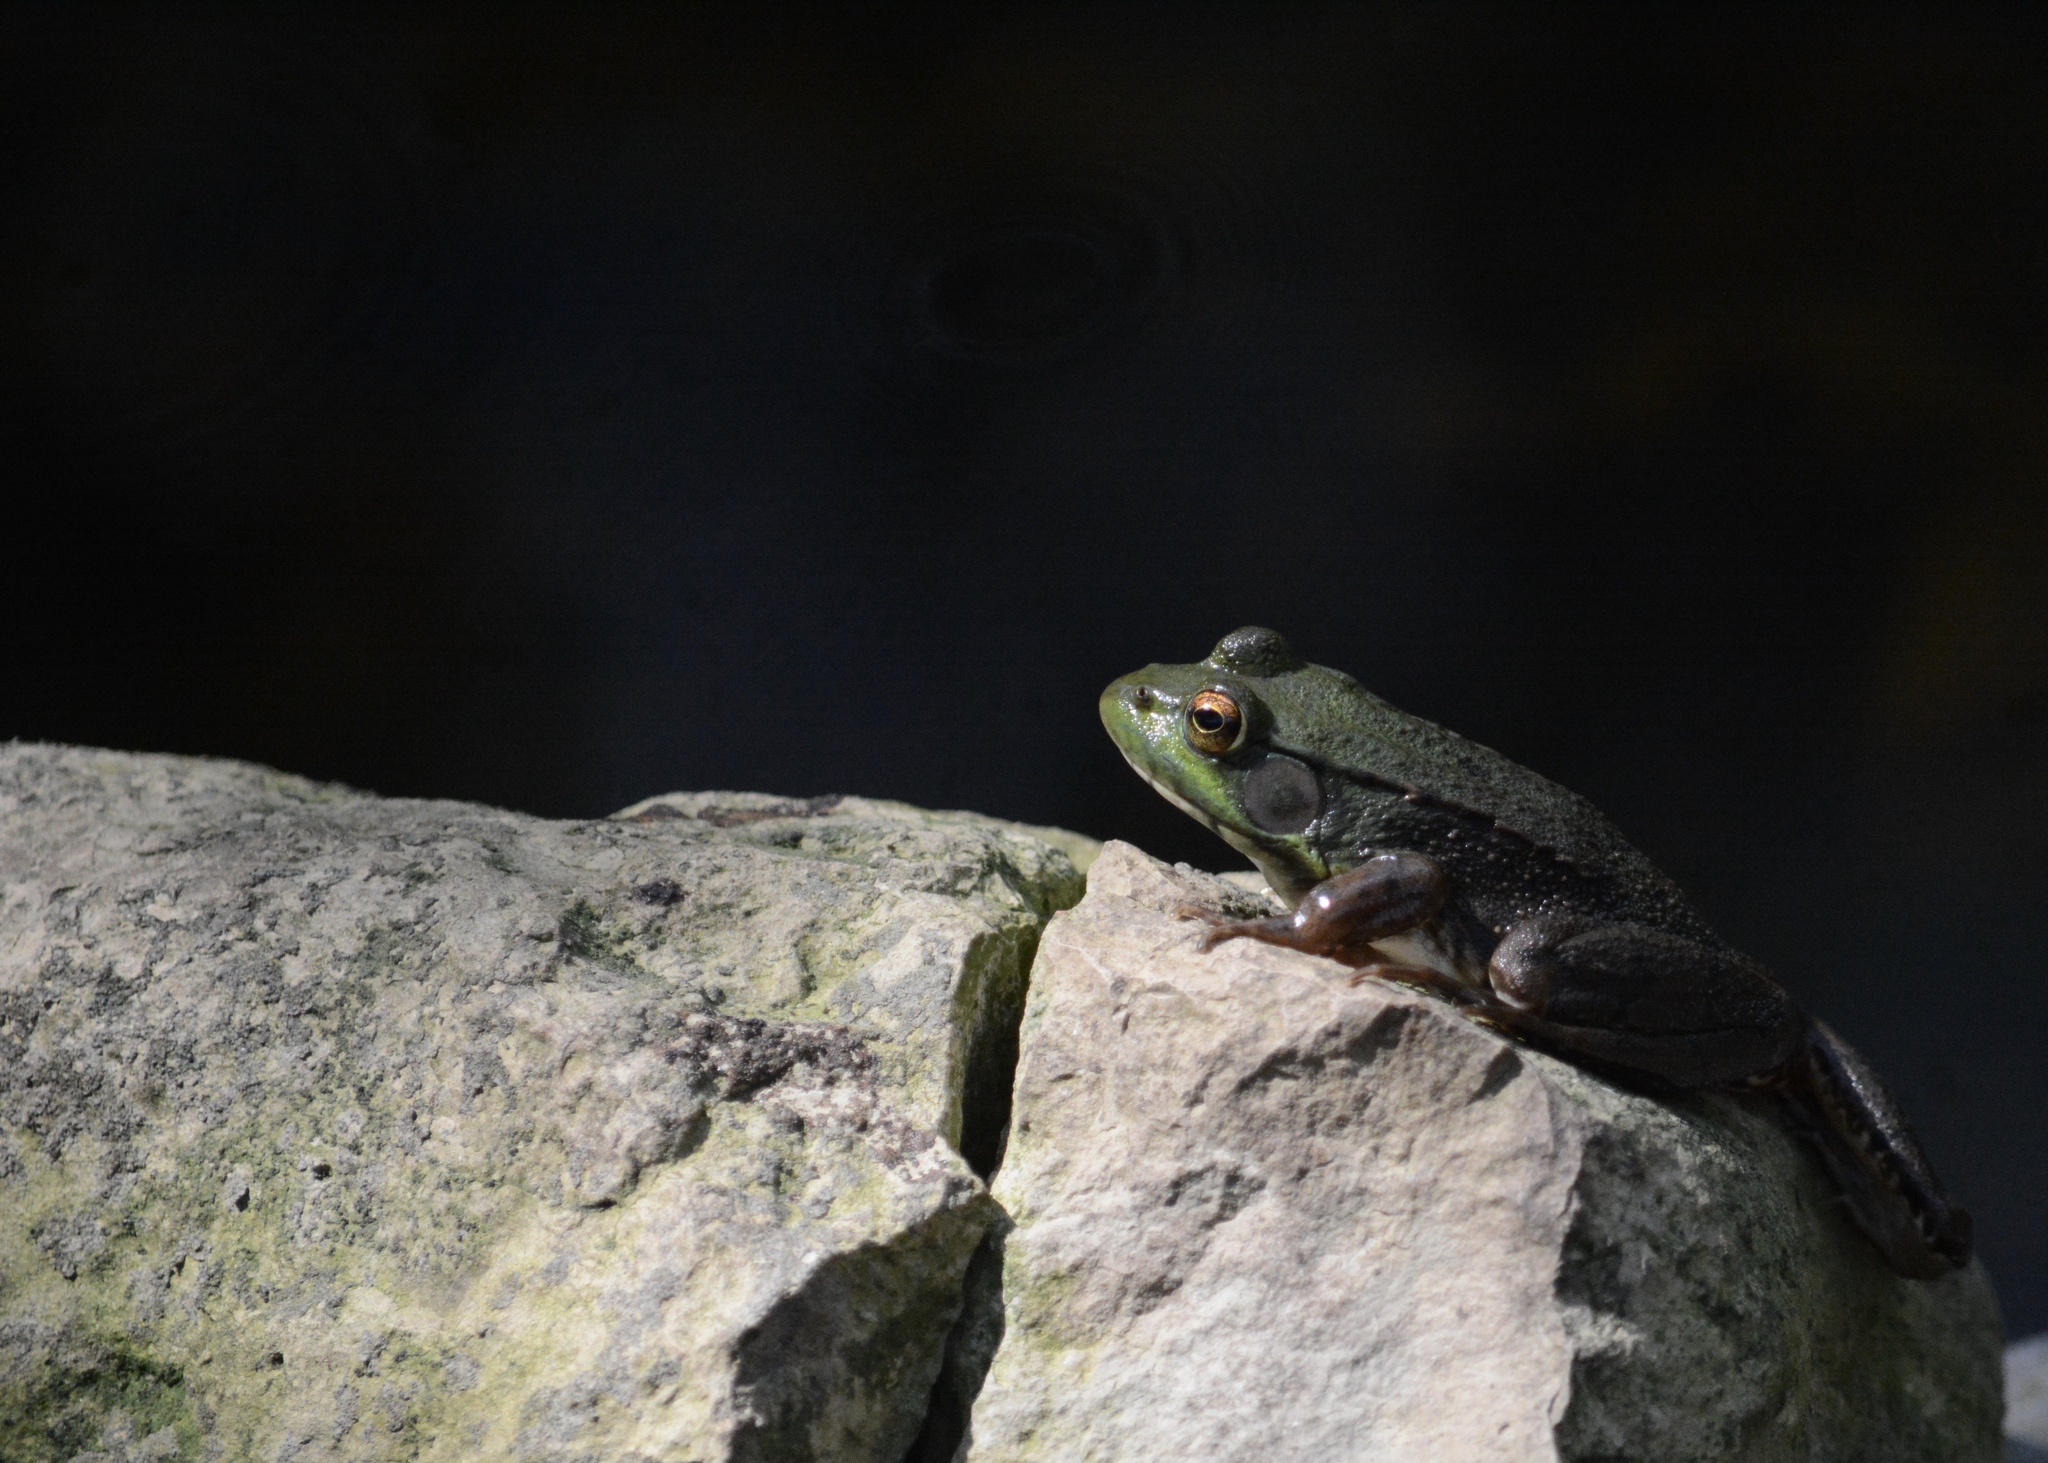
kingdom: Animalia
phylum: Chordata
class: Amphibia
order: Anura
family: Ranidae
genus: Lithobates
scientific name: Lithobates clamitans
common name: Green frog
